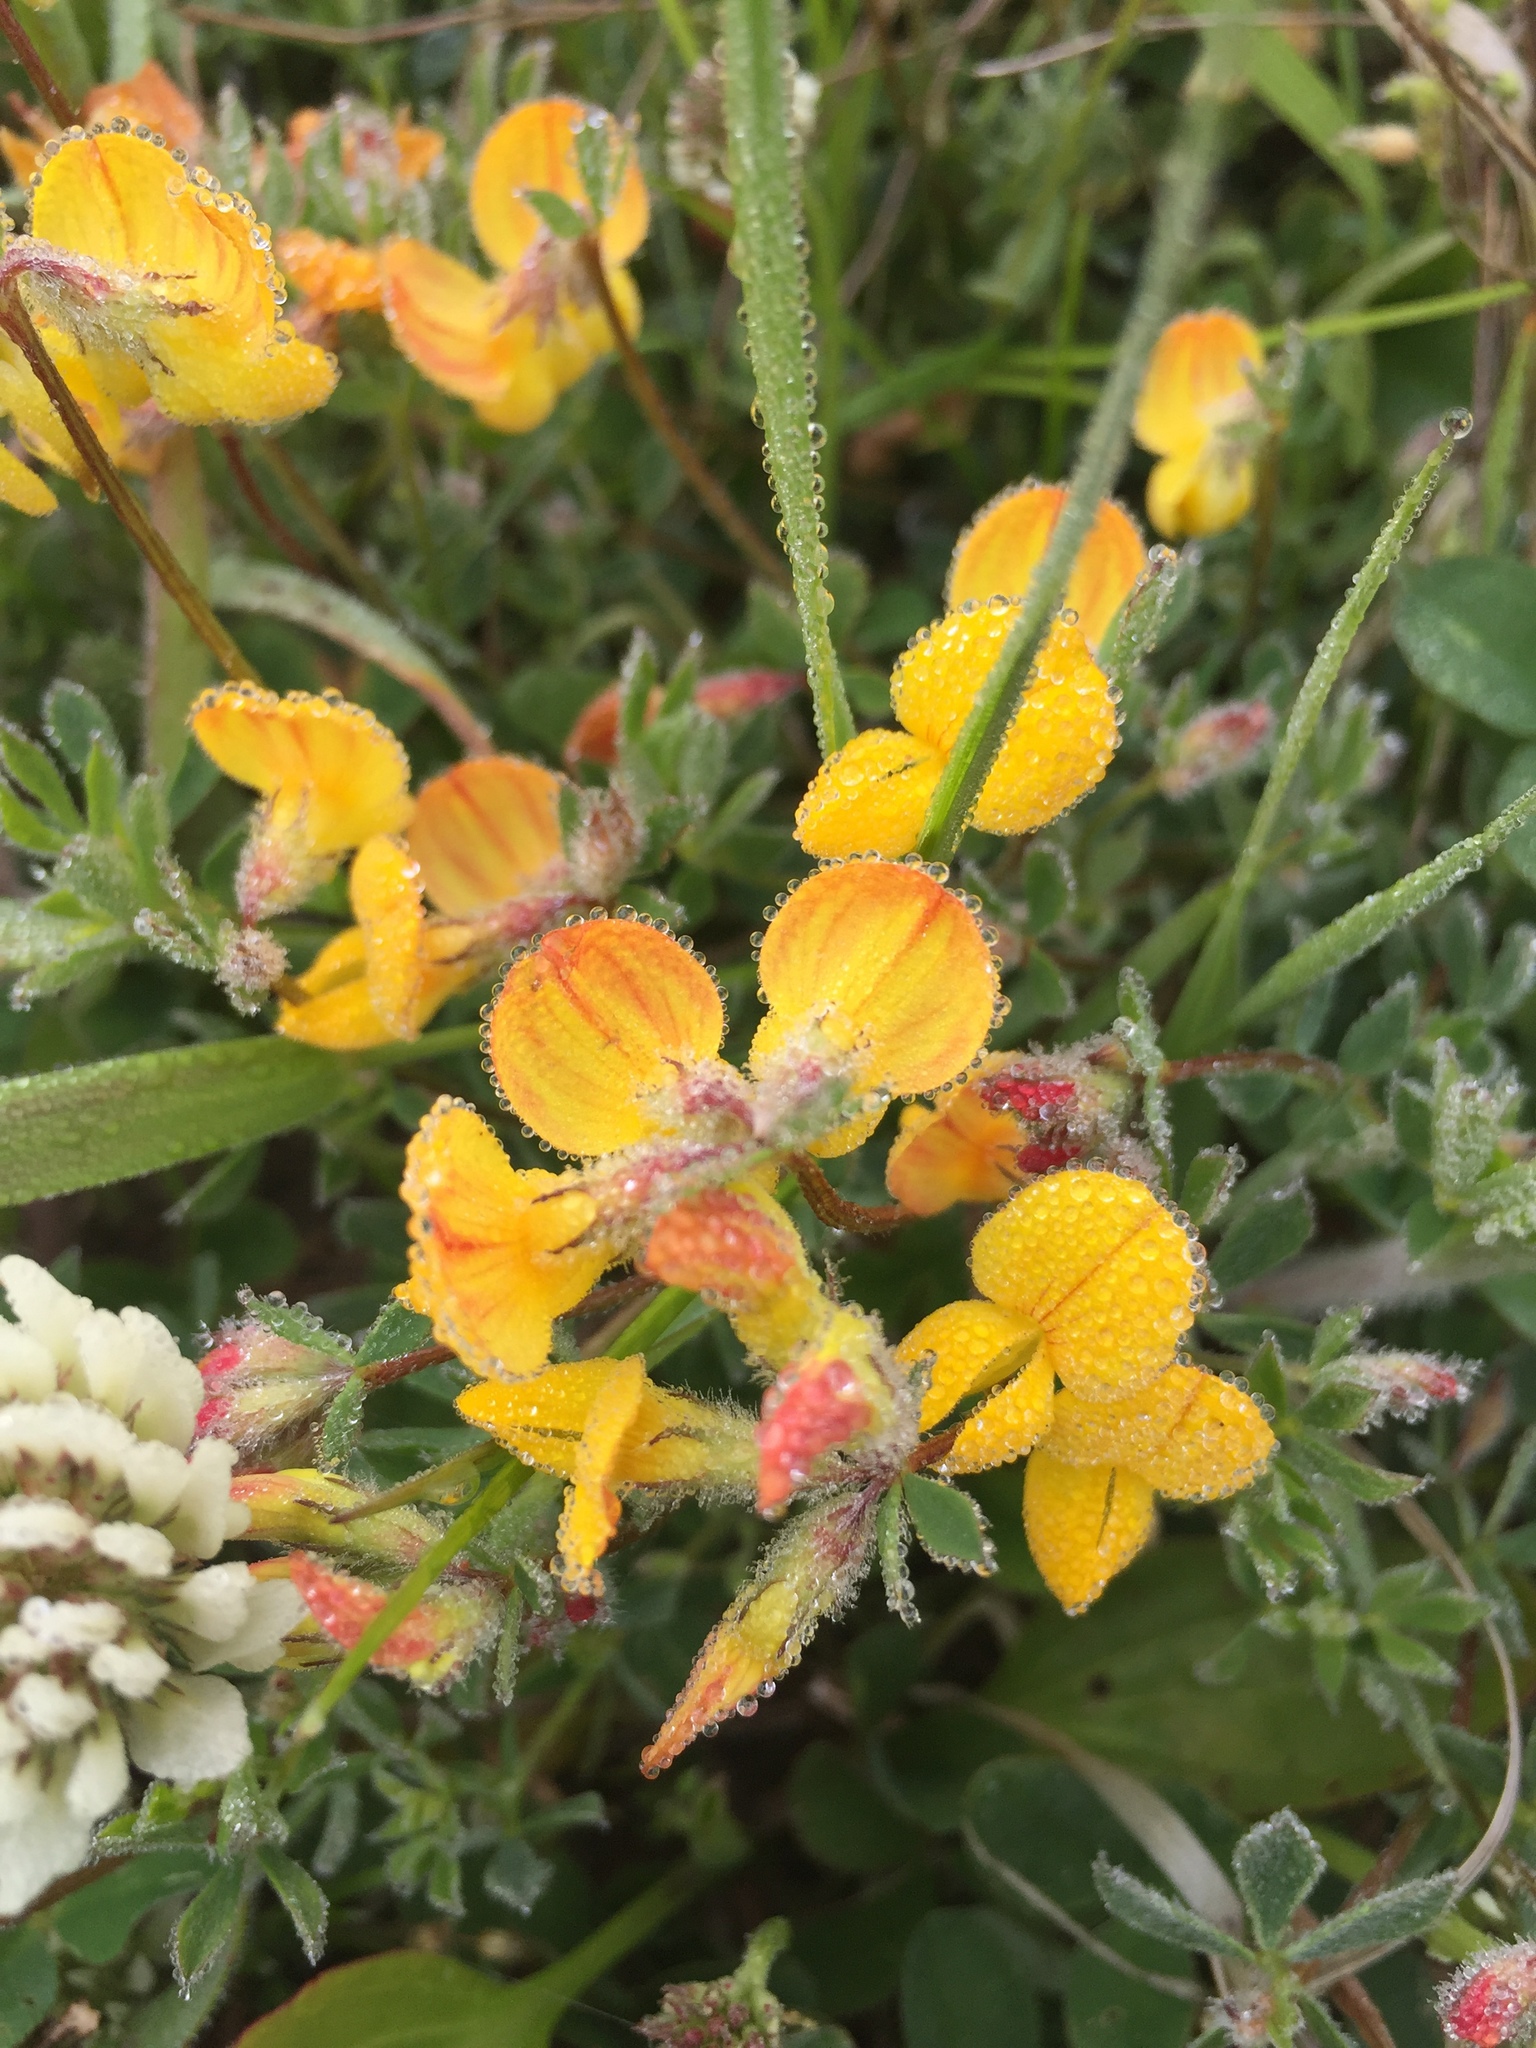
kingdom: Plantae
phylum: Tracheophyta
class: Magnoliopsida
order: Fabales
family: Fabaceae
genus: Lotus
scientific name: Lotus corniculatus
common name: Common bird's-foot-trefoil
